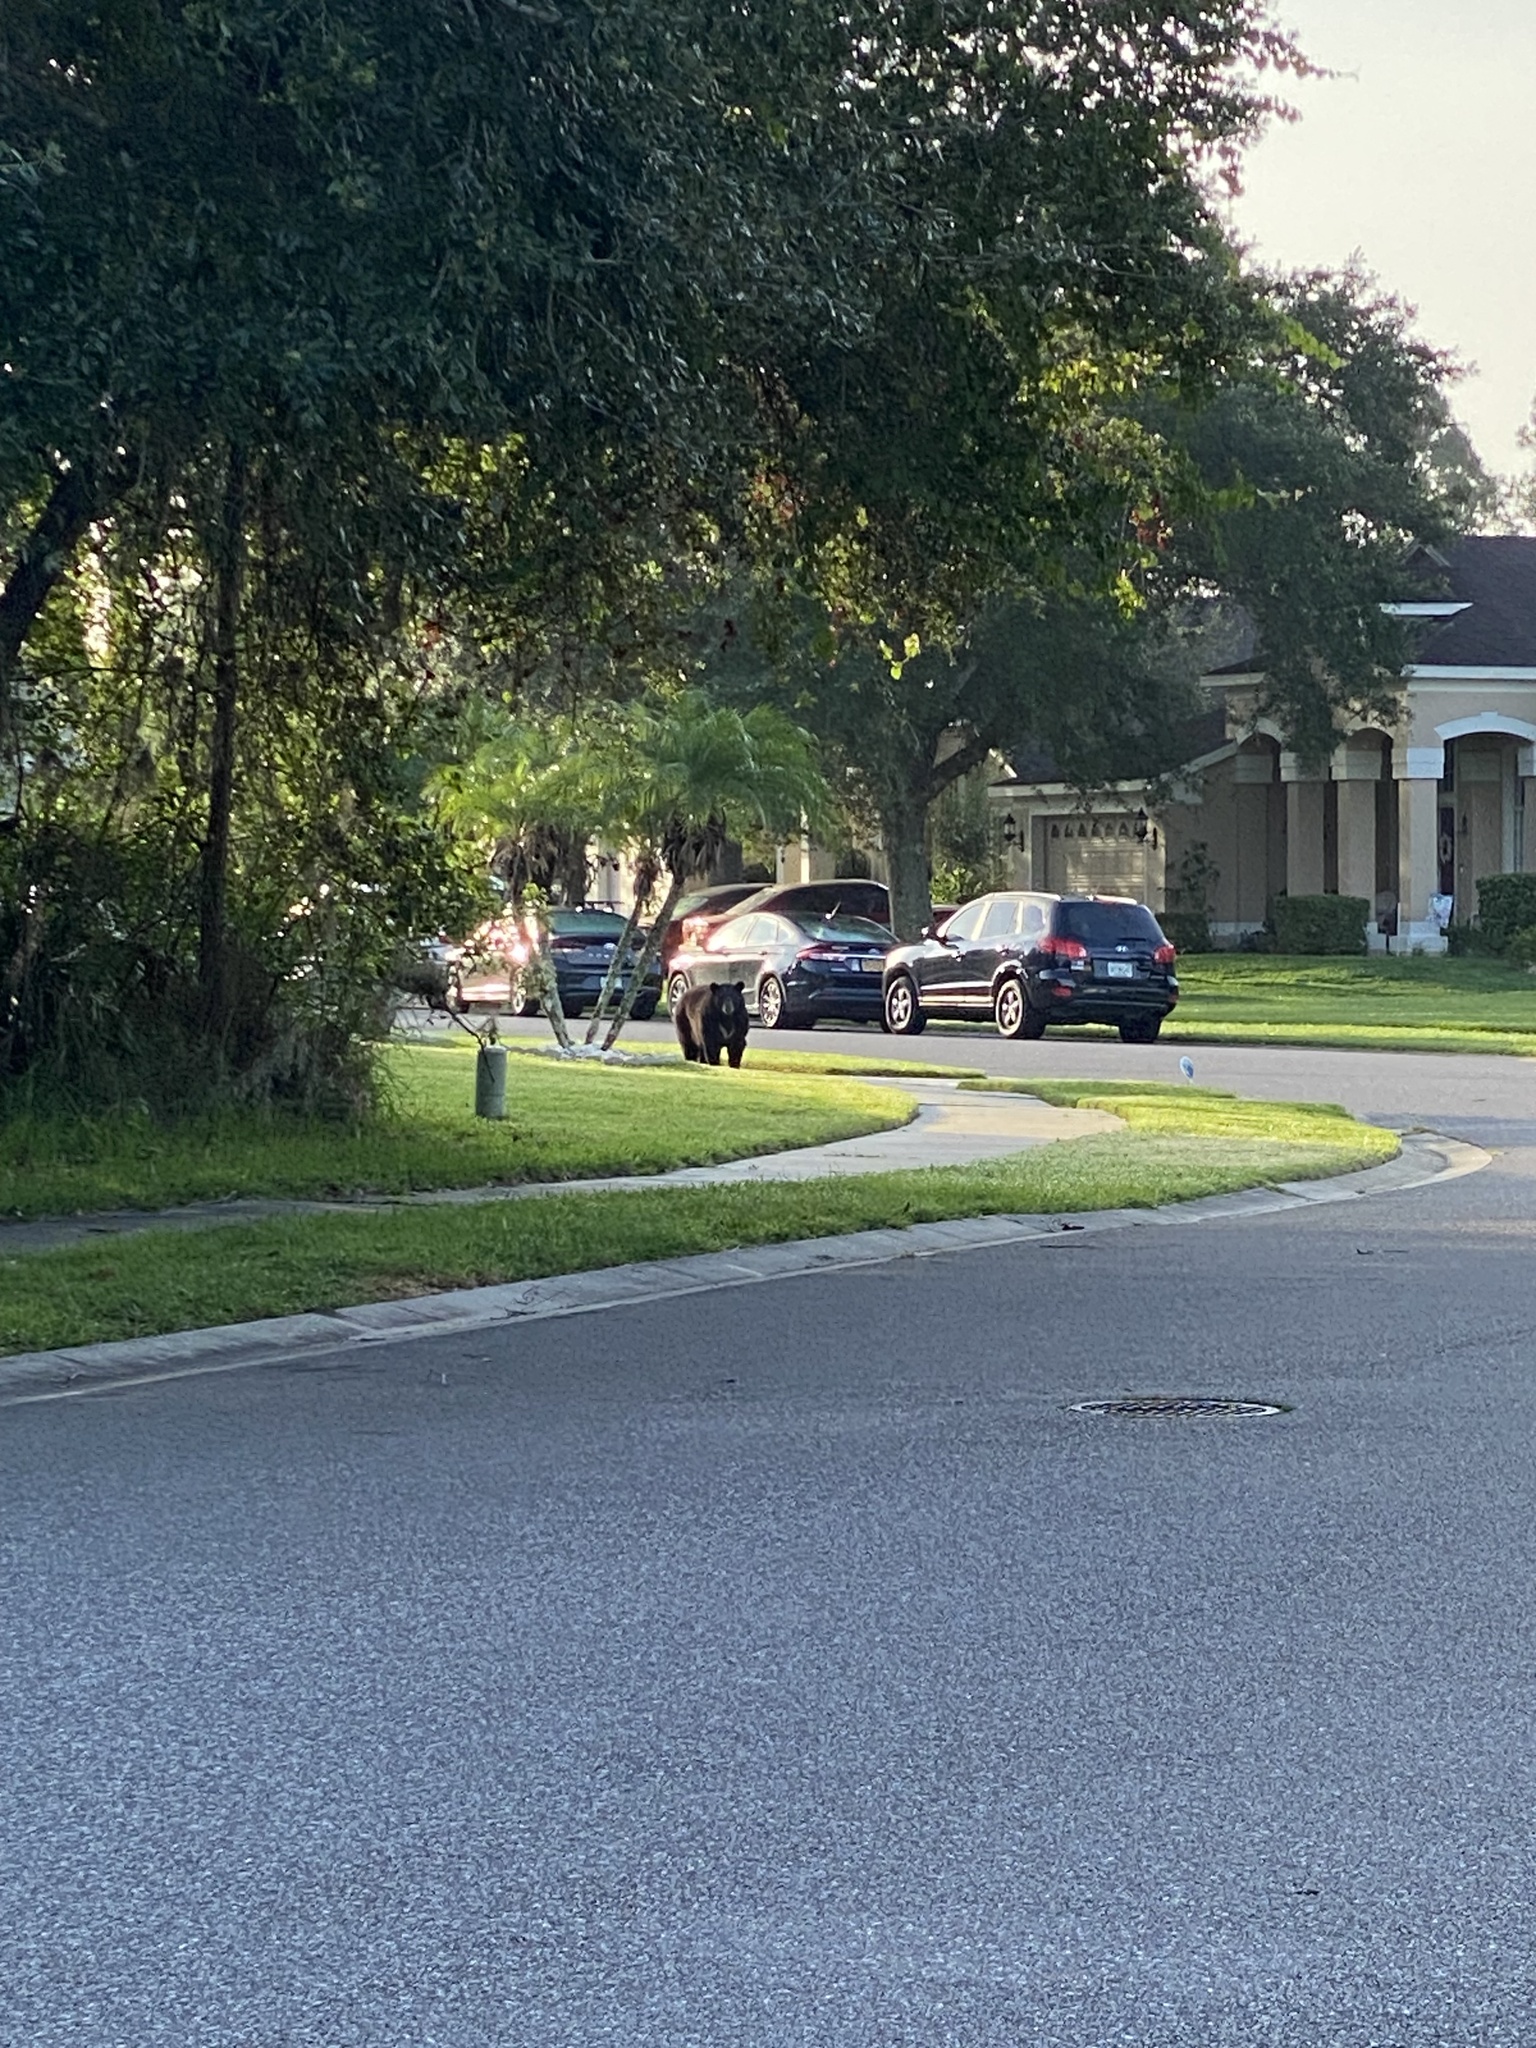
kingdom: Animalia
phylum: Chordata
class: Mammalia
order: Carnivora
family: Ursidae
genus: Ursus
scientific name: Ursus americanus
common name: American black bear
